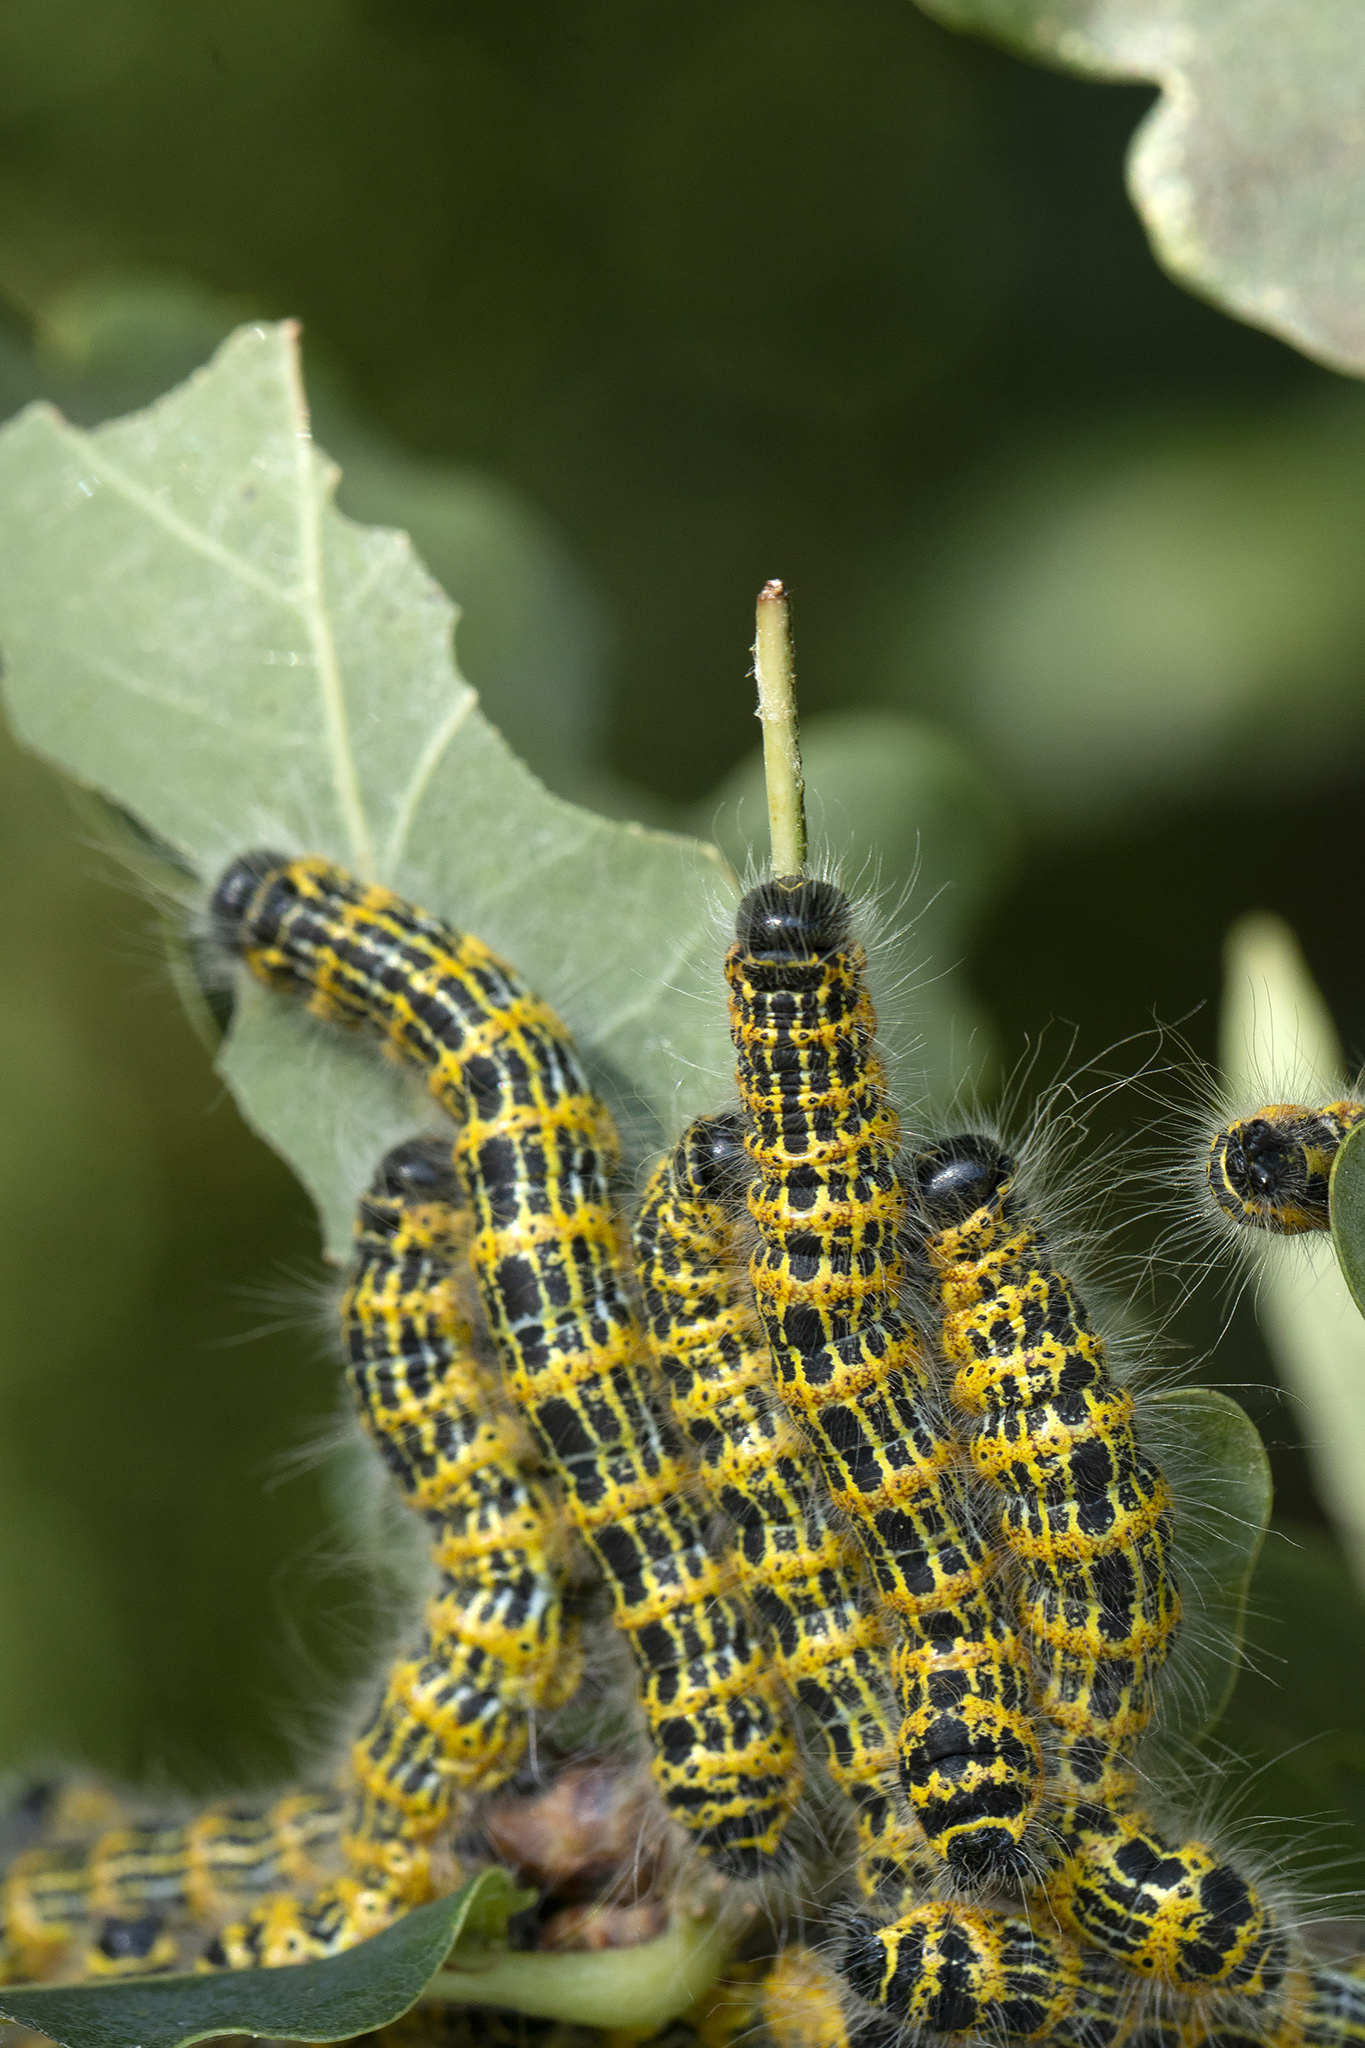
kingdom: Animalia
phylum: Arthropoda
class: Insecta
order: Lepidoptera
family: Notodontidae
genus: Phalera
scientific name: Phalera bucephala
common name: Buff-tip
